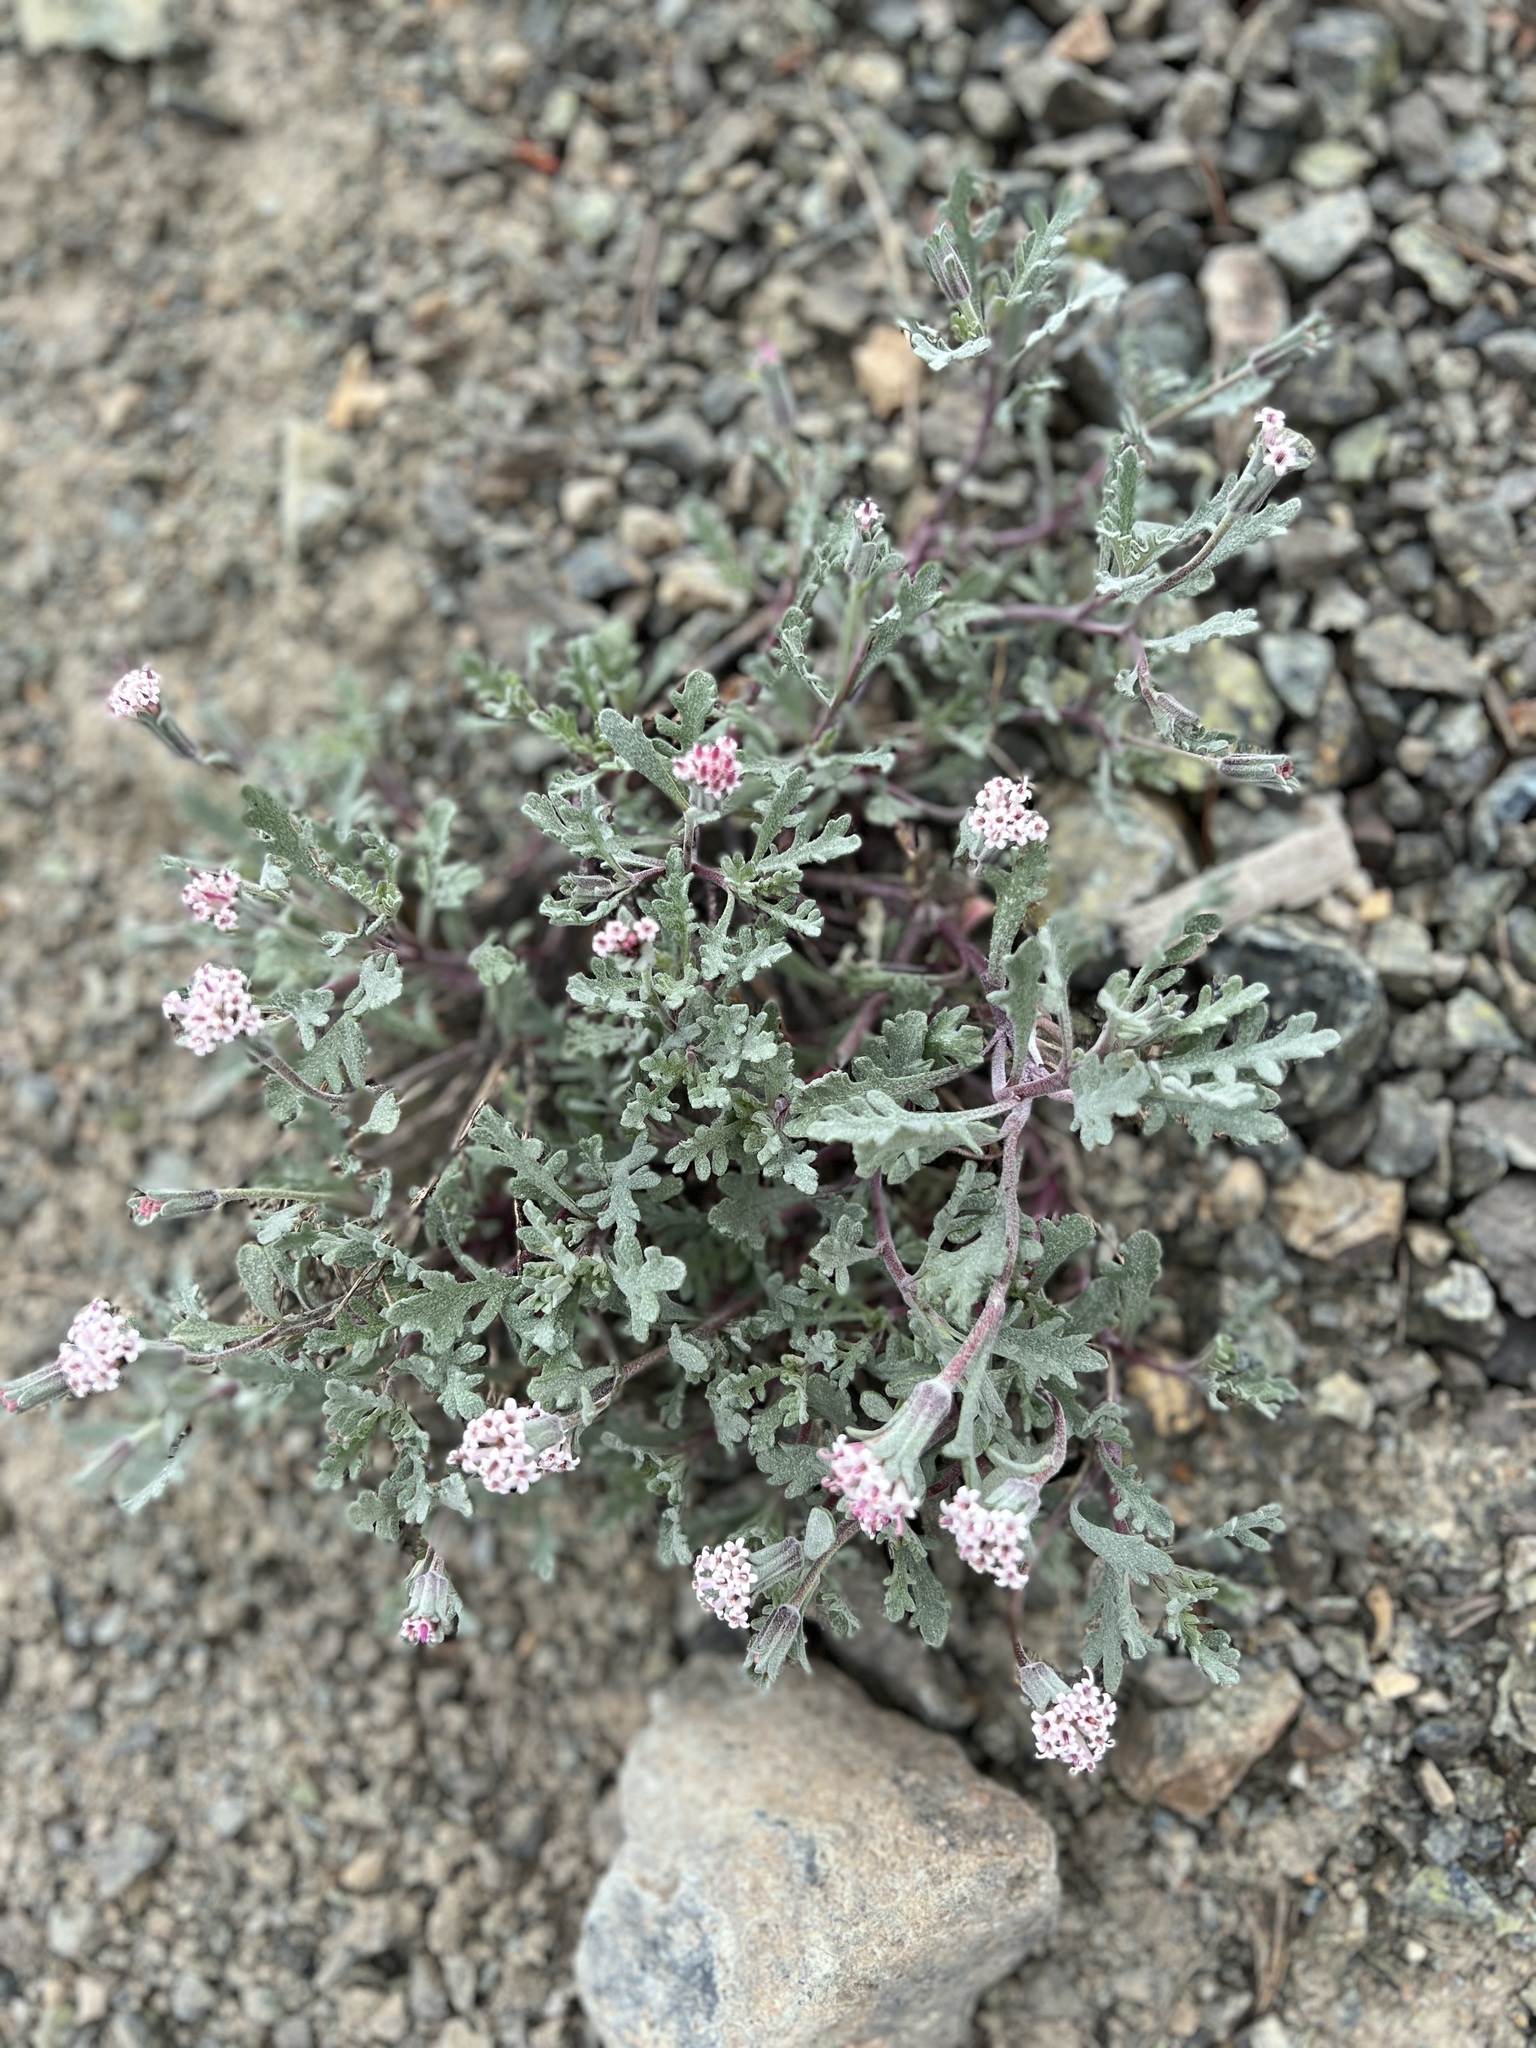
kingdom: Plantae
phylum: Tracheophyta
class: Magnoliopsida
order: Asterales
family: Asteraceae
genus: Chaenactis
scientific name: Chaenactis thompsonii
